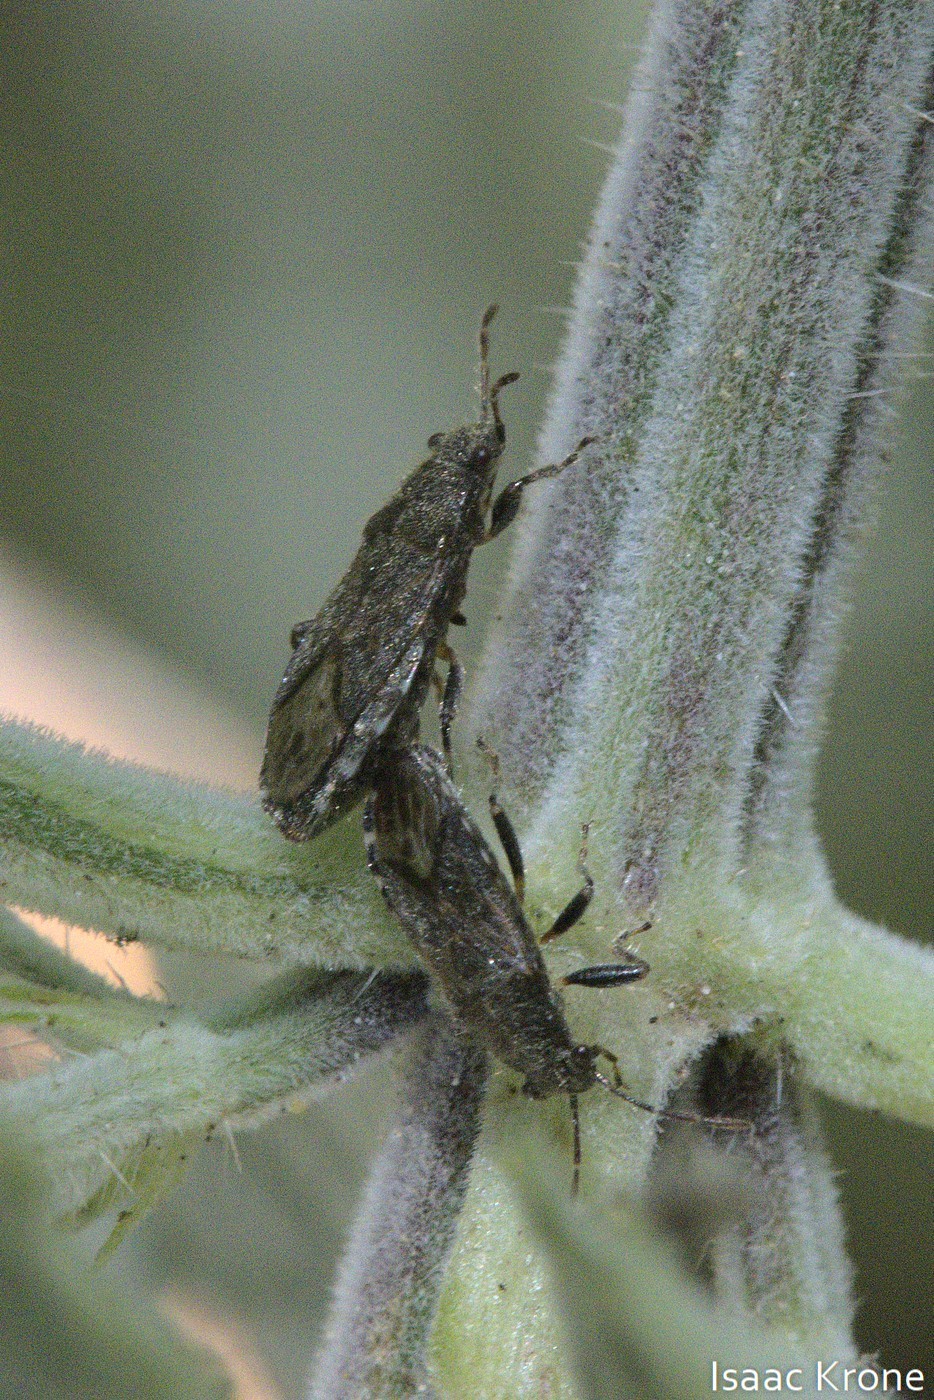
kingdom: Animalia
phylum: Arthropoda
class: Insecta
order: Hemiptera
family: Heterogastridae
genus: Heterogaster
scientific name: Heterogaster urticae
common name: Seed bug
